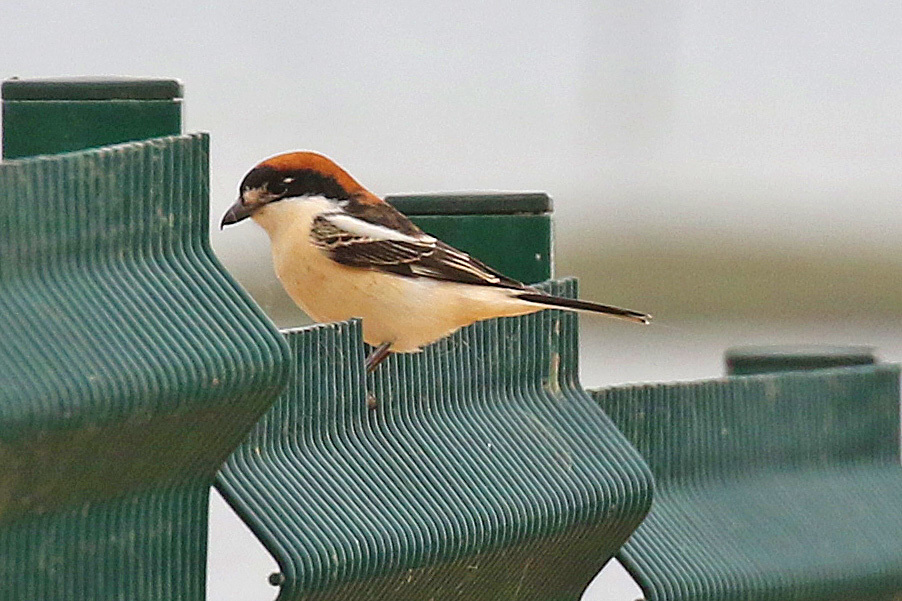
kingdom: Animalia
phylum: Chordata
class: Aves
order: Passeriformes
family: Laniidae
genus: Lanius
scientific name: Lanius senator
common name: Woodchat shrike
